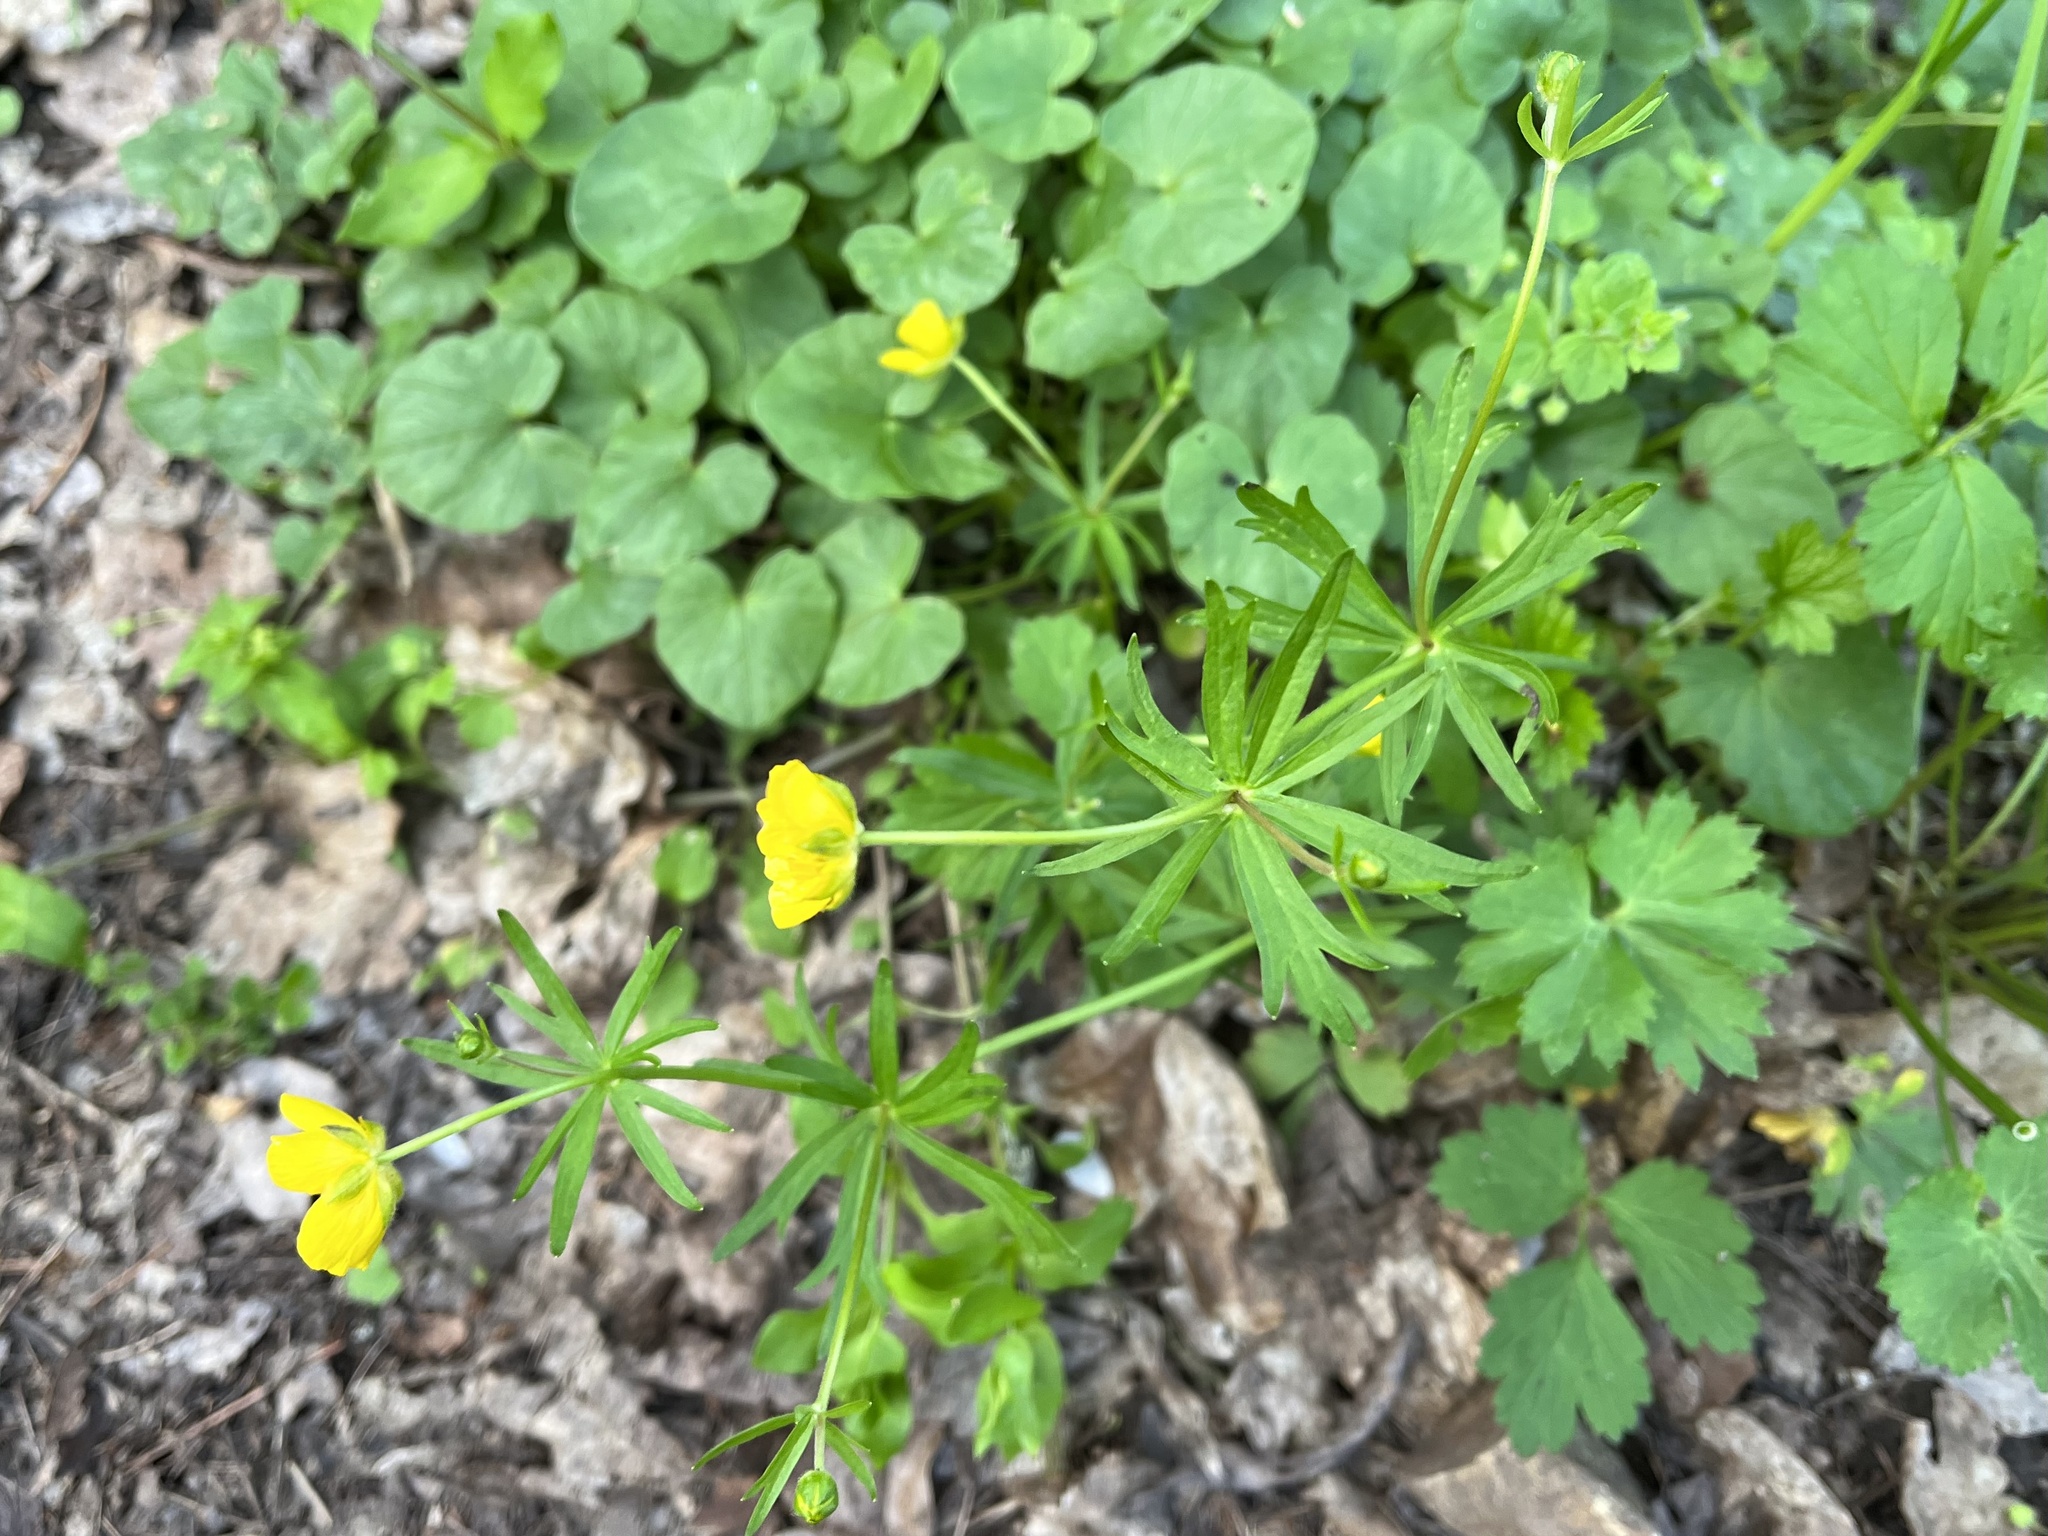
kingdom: Plantae
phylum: Tracheophyta
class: Magnoliopsida
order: Ranunculales
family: Ranunculaceae
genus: Ranunculus
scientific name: Ranunculus auricomus
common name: Goldilocks buttercup
